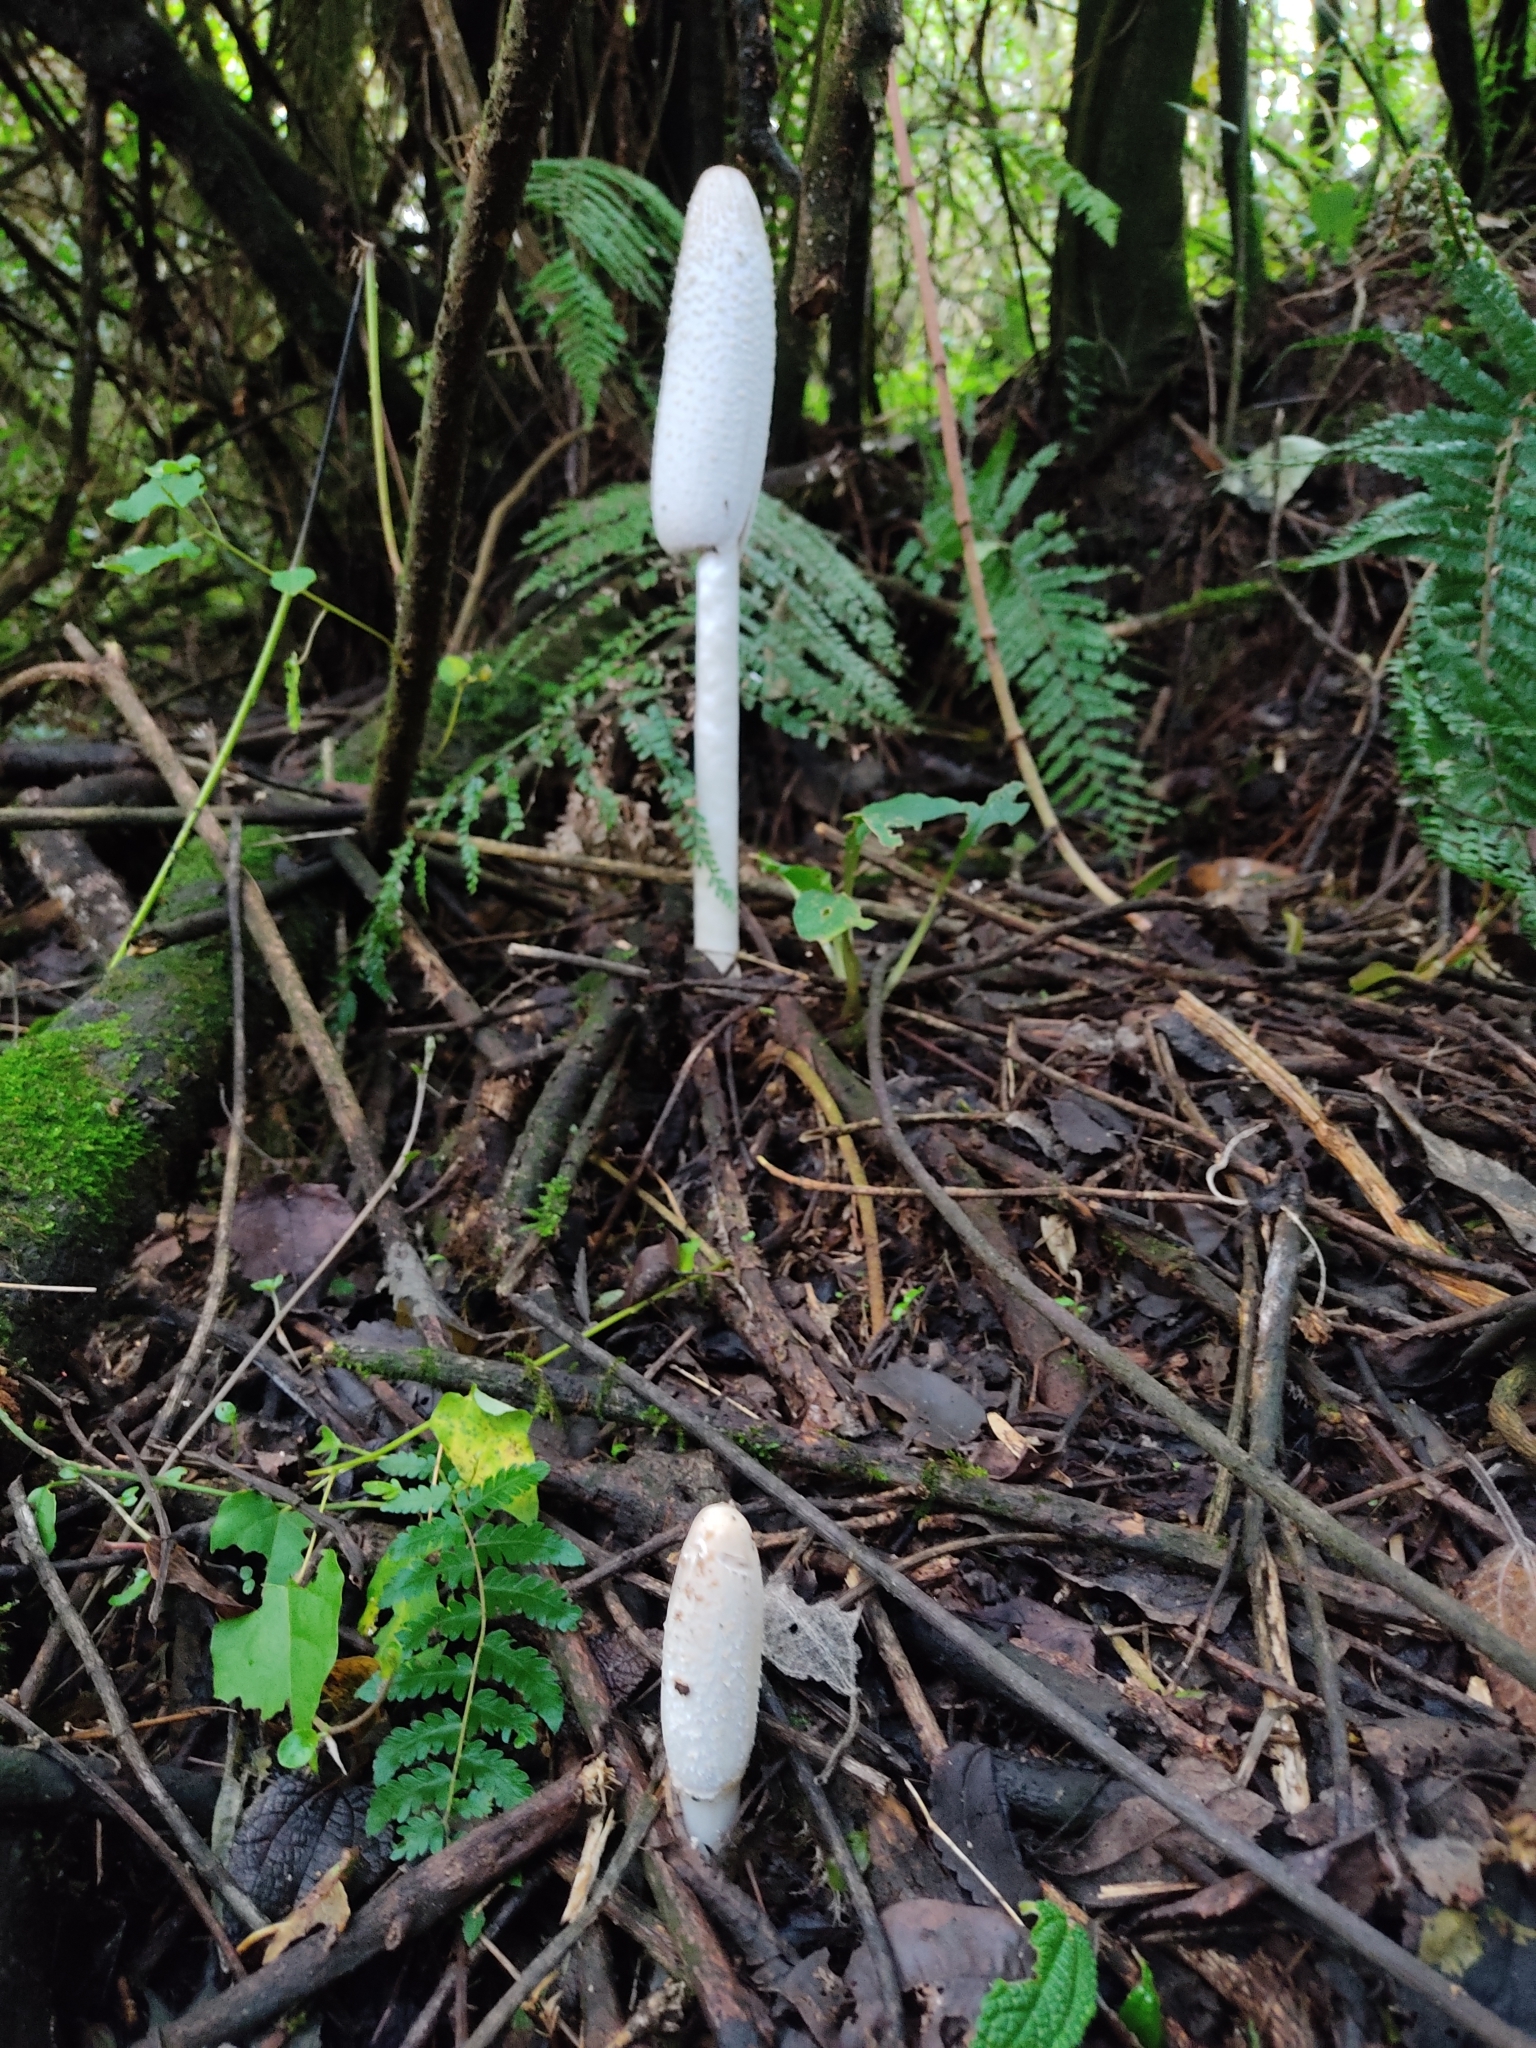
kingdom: Fungi
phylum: Basidiomycota
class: Agaricomycetes
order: Agaricales
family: Agaricaceae
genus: Coprinus
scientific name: Coprinus comatus
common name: Lawyer's wig
